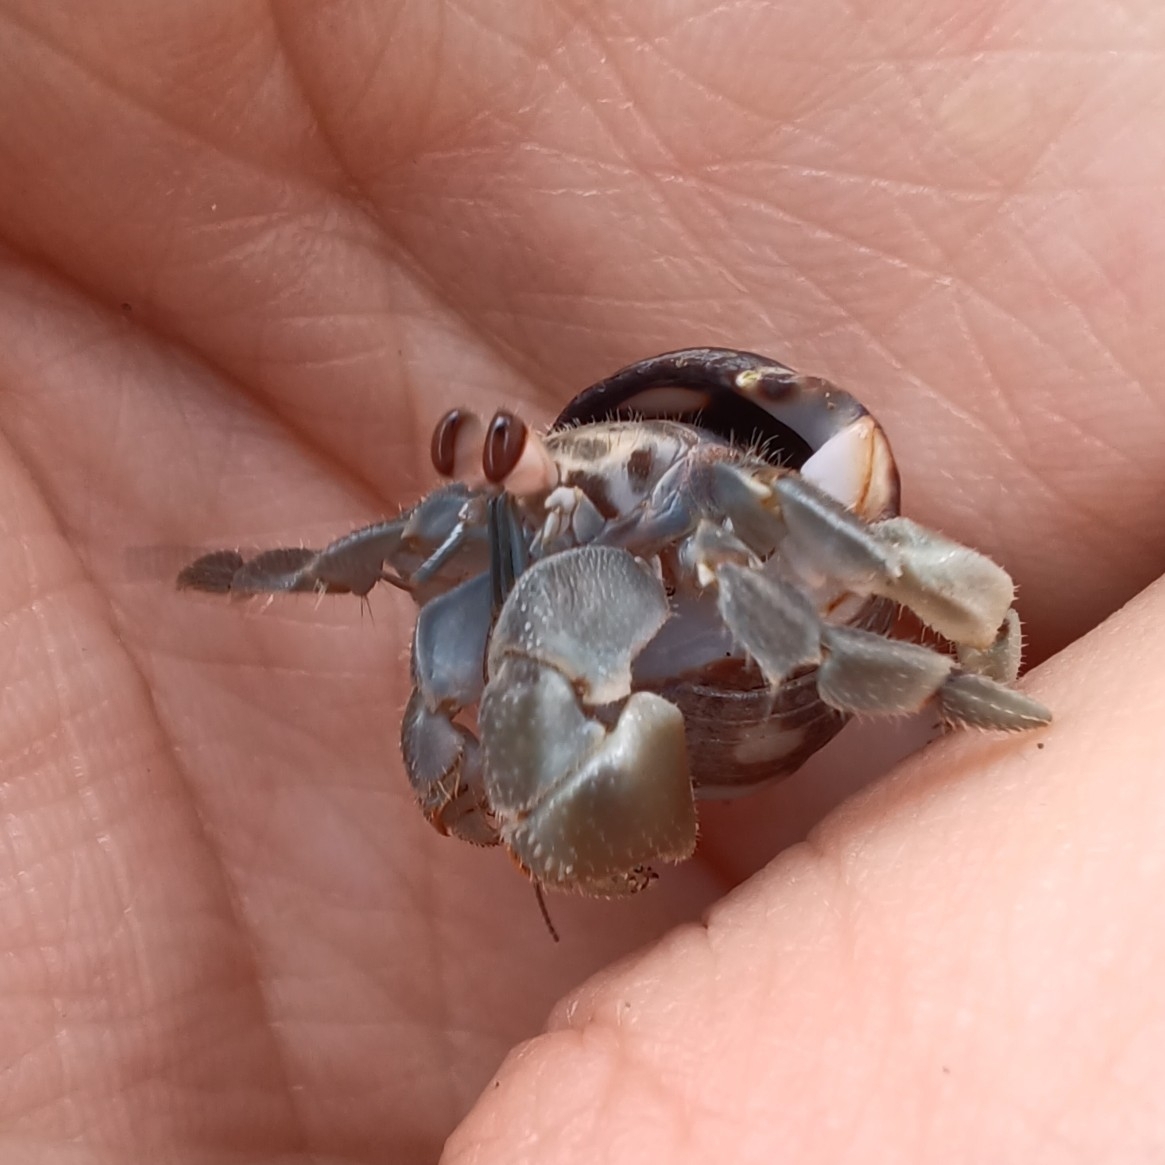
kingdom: Animalia
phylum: Arthropoda
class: Malacostraca
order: Decapoda
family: Coenobitidae
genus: Coenobita
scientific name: Coenobita compressus
